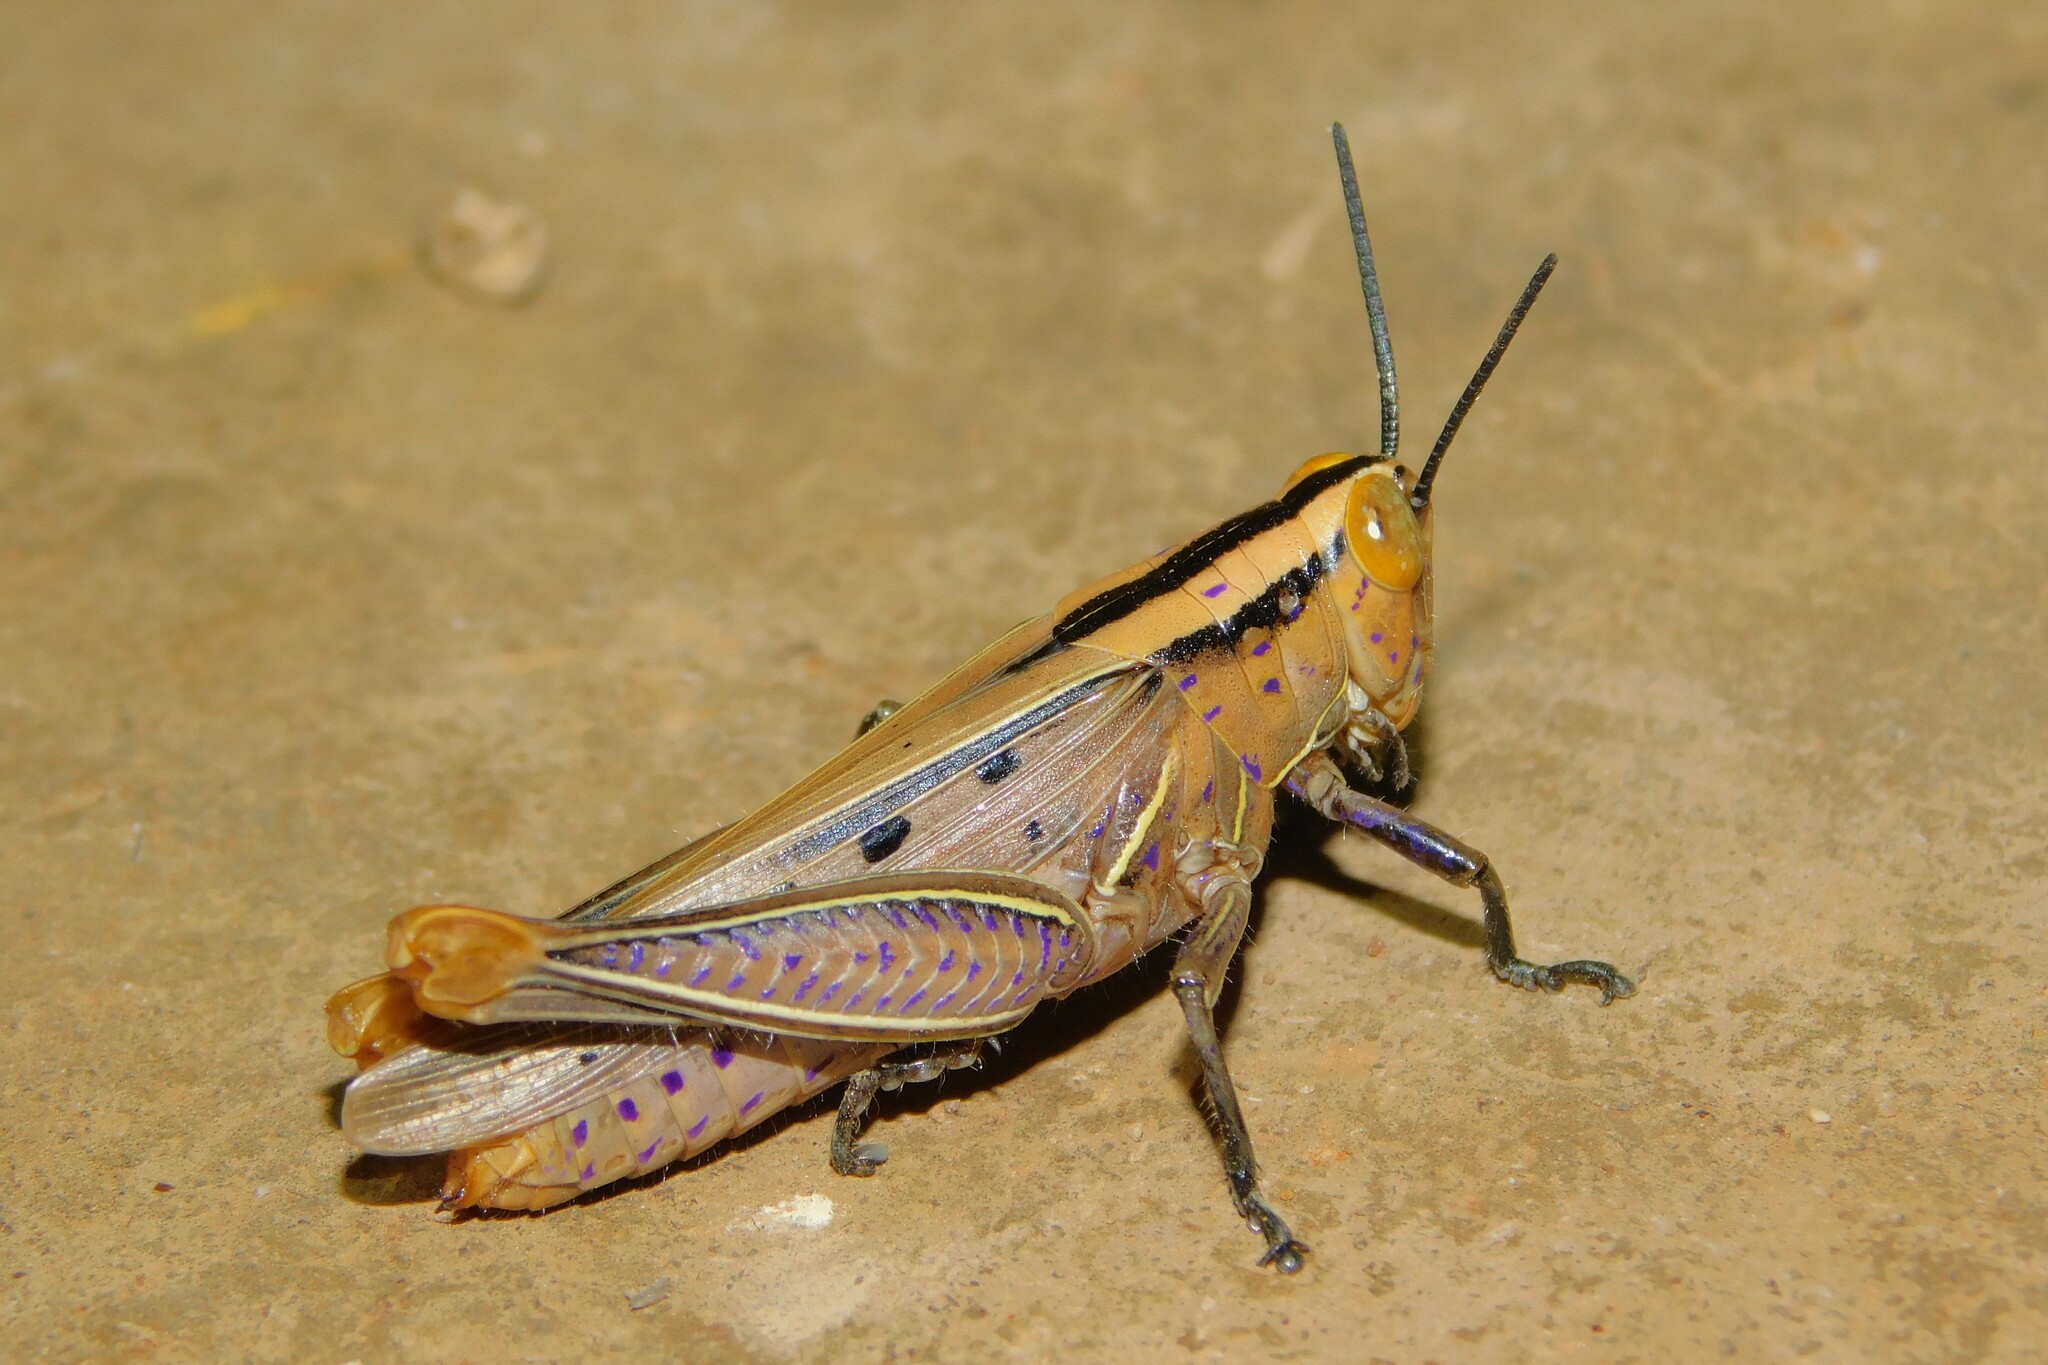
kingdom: Animalia
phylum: Arthropoda
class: Insecta
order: Orthoptera
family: Acrididae
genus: Cardeniopsis
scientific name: Cardeniopsis nigropunctatus
